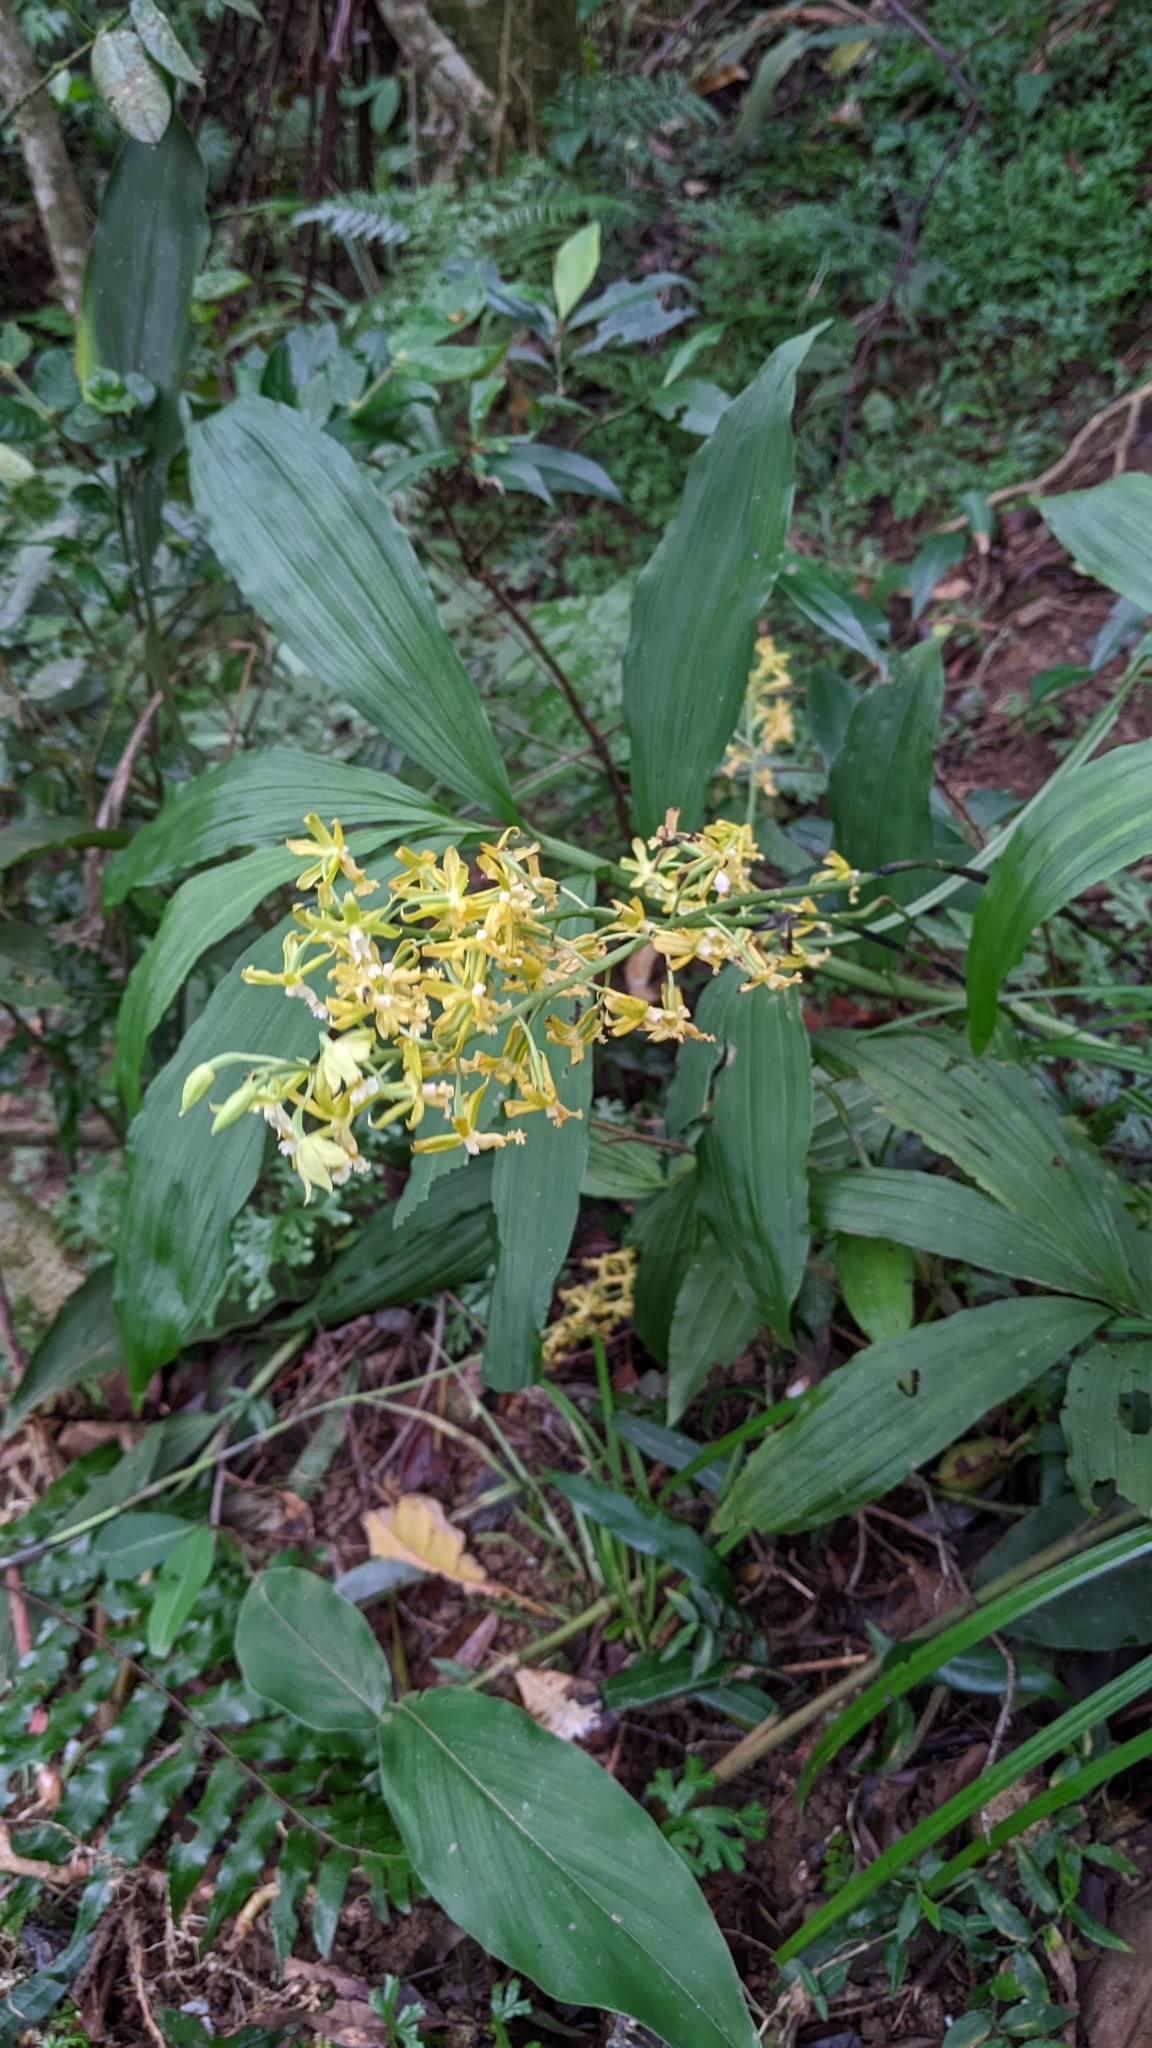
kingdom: Plantae
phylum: Tracheophyta
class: Liliopsida
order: Asparagales
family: Orchidaceae
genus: Calanthe
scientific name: Calanthe obcordata
